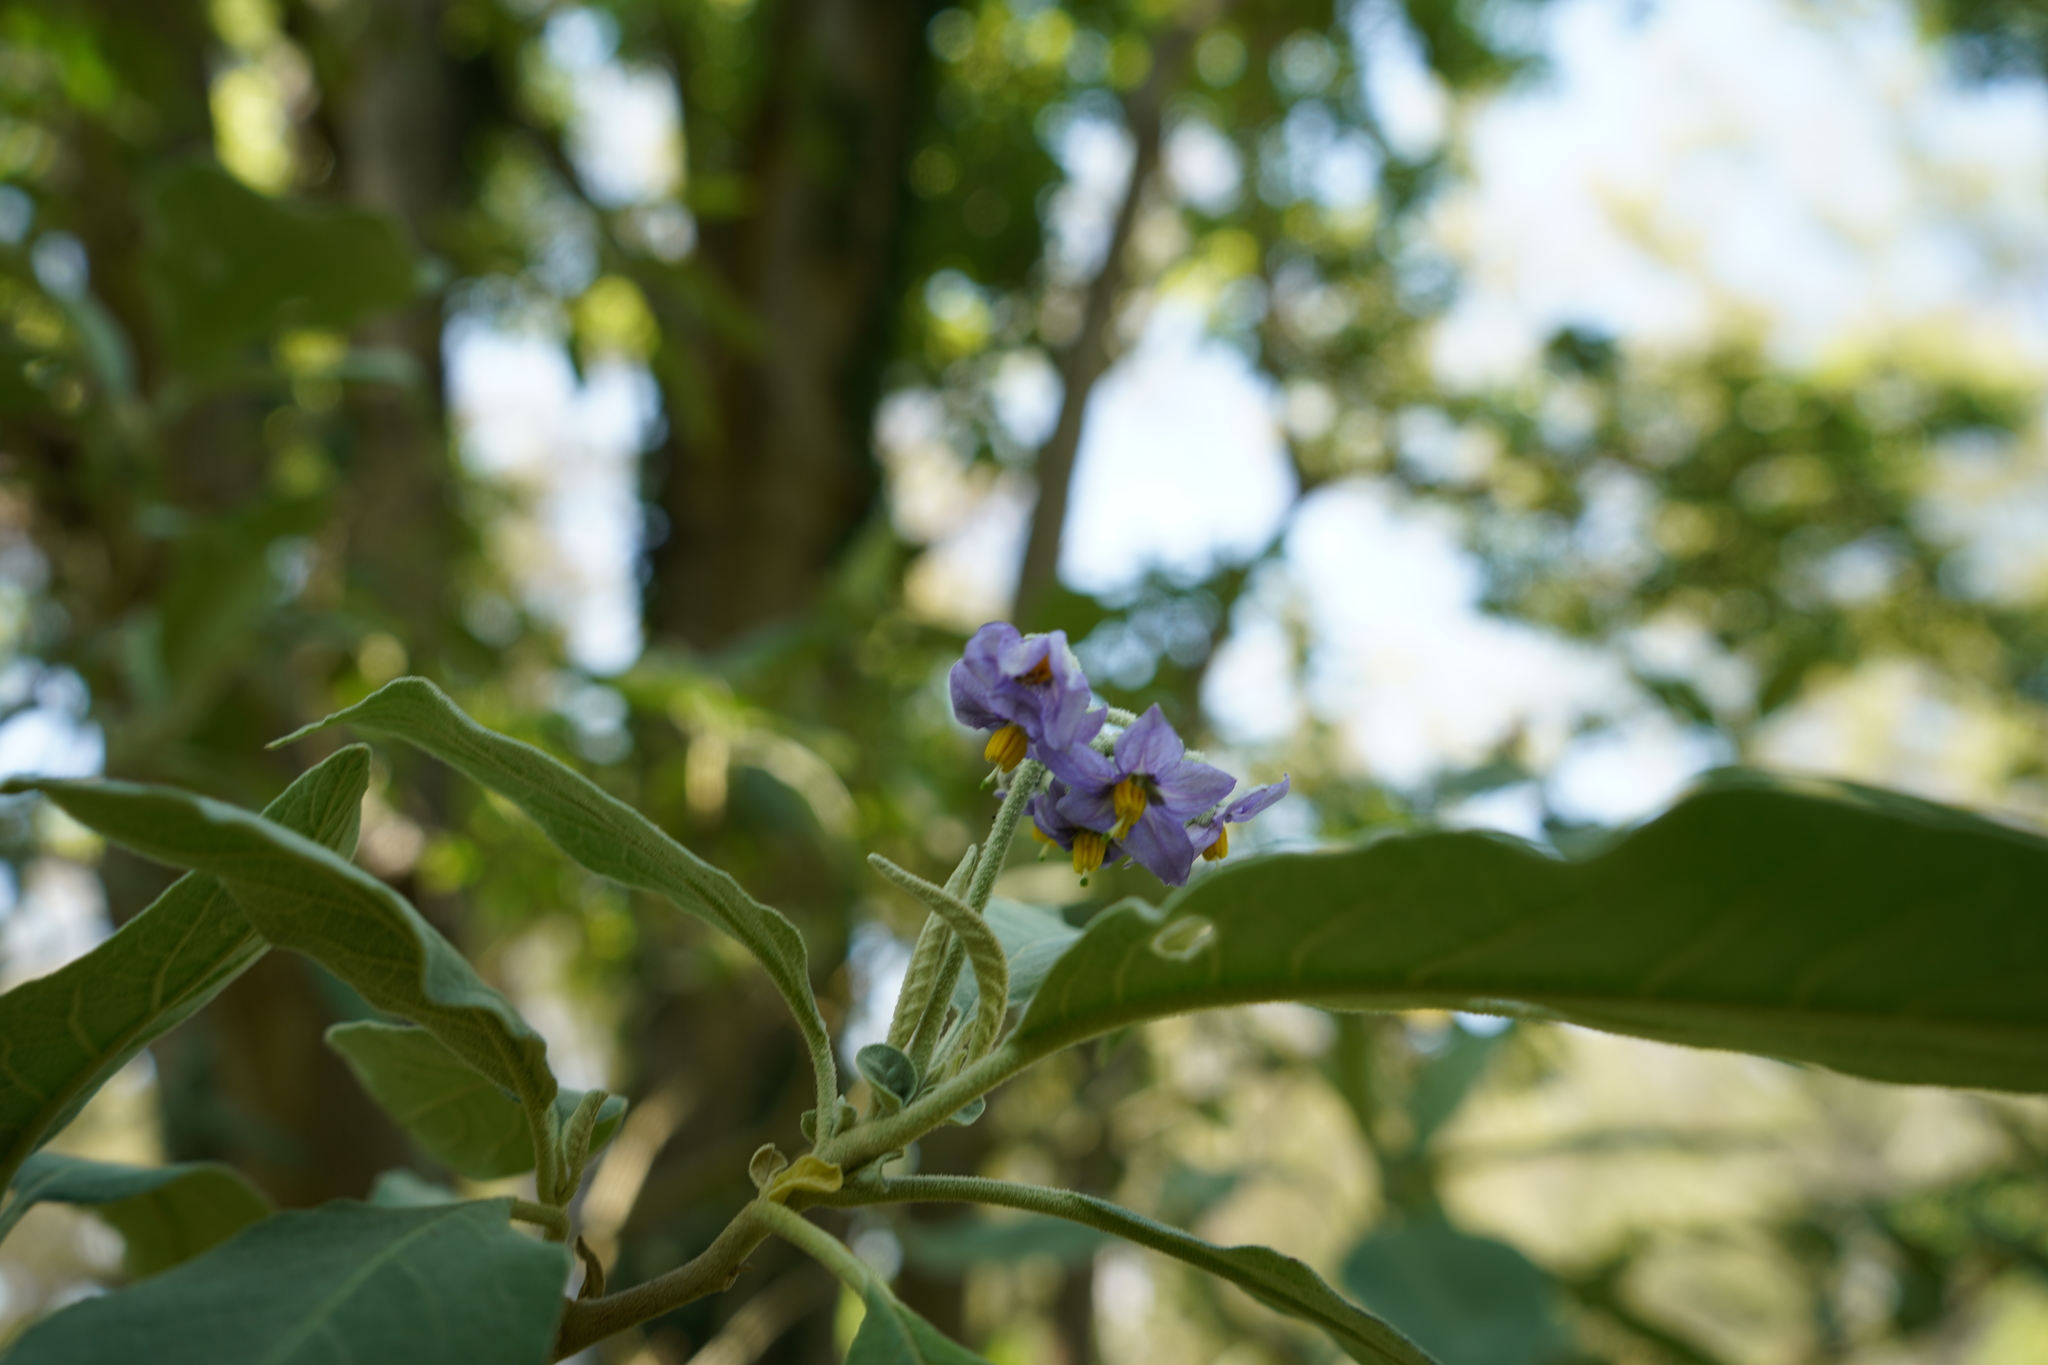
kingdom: Plantae
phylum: Tracheophyta
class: Magnoliopsida
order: Solanales
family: Solanaceae
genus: Solanum
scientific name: Solanum granulosoleprosum
